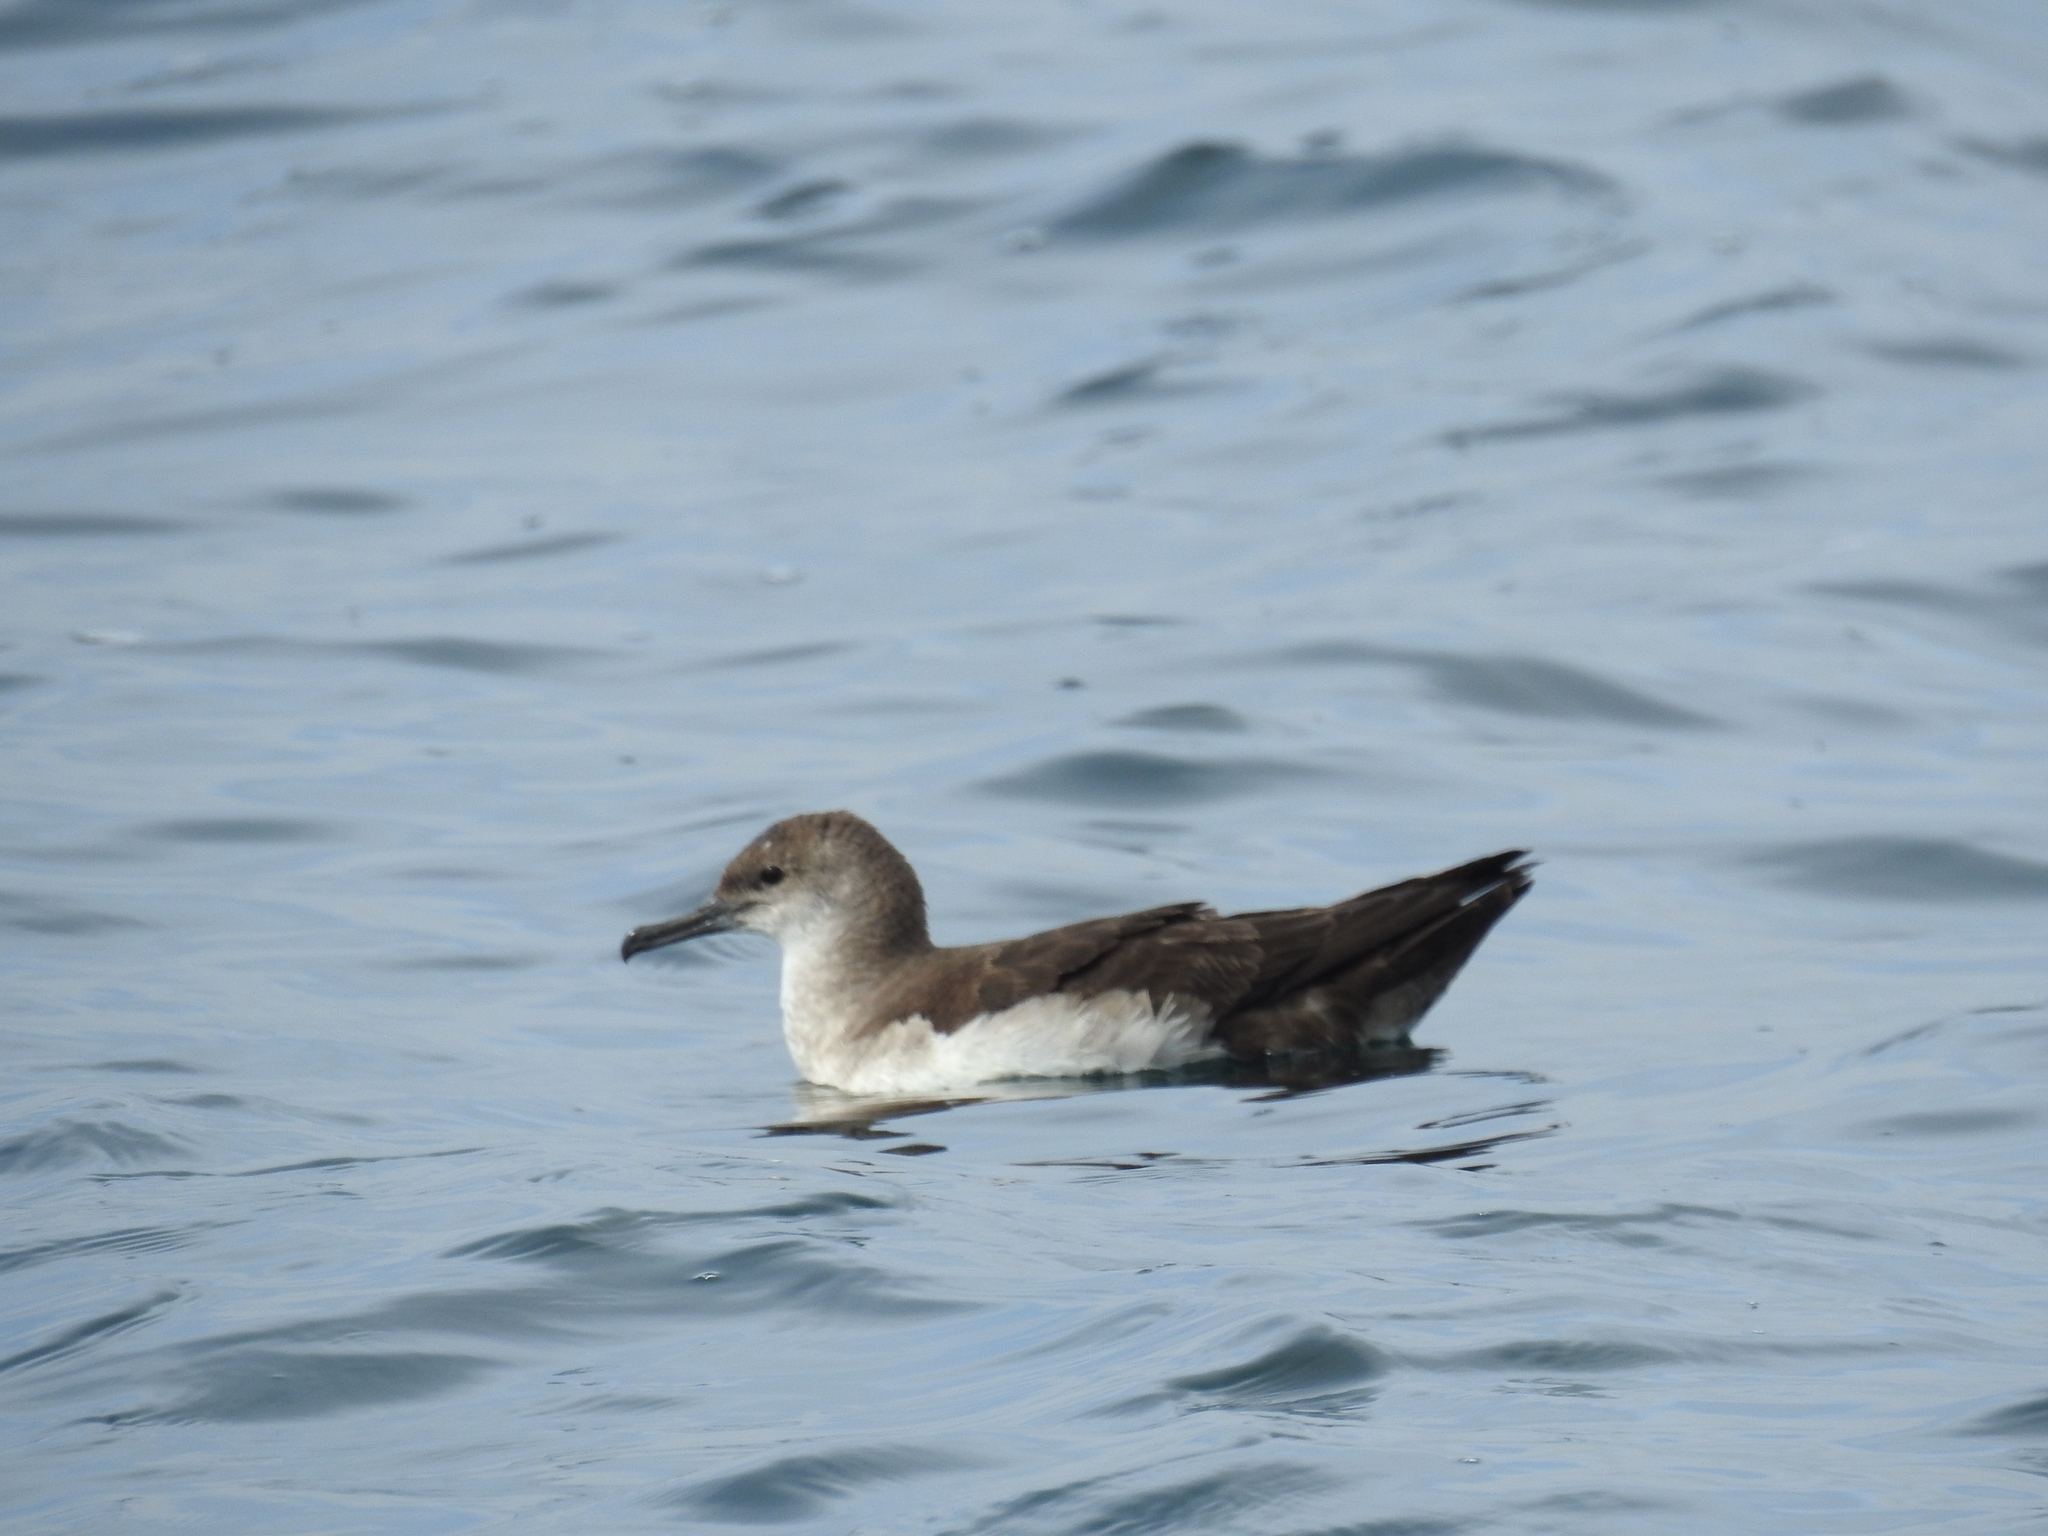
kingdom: Animalia
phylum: Chordata
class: Aves
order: Procellariiformes
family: Procellariidae
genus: Puffinus
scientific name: Puffinus opisthomelas
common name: Black-vented shearwater
